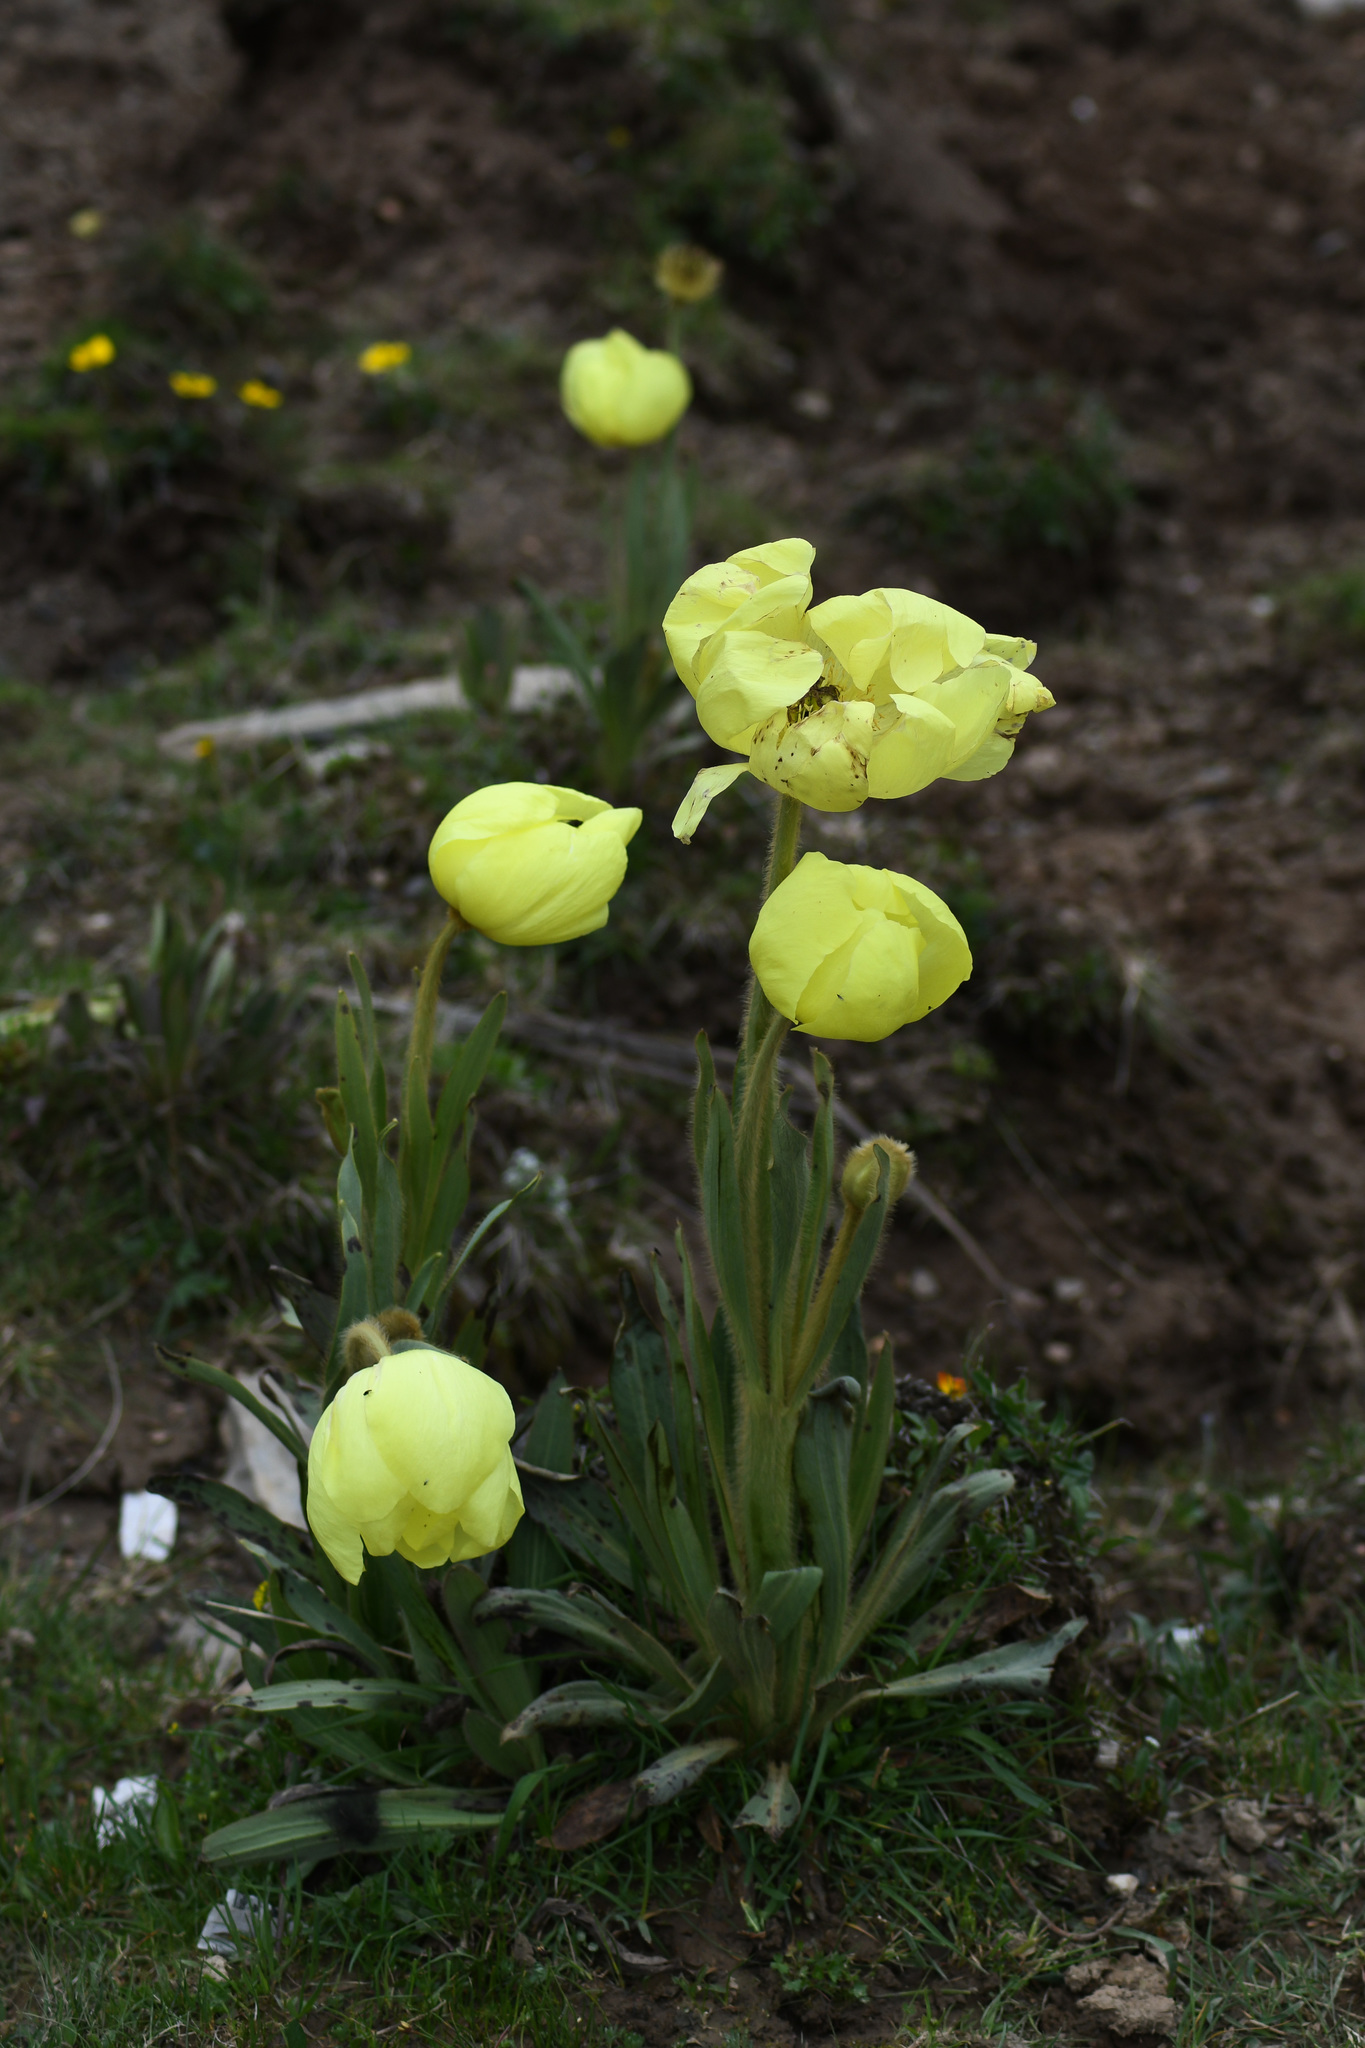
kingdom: Plantae
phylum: Tracheophyta
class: Magnoliopsida
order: Ranunculales
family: Papaveraceae
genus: Meconopsis
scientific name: Meconopsis integrifolia
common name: Yellow poppywort
